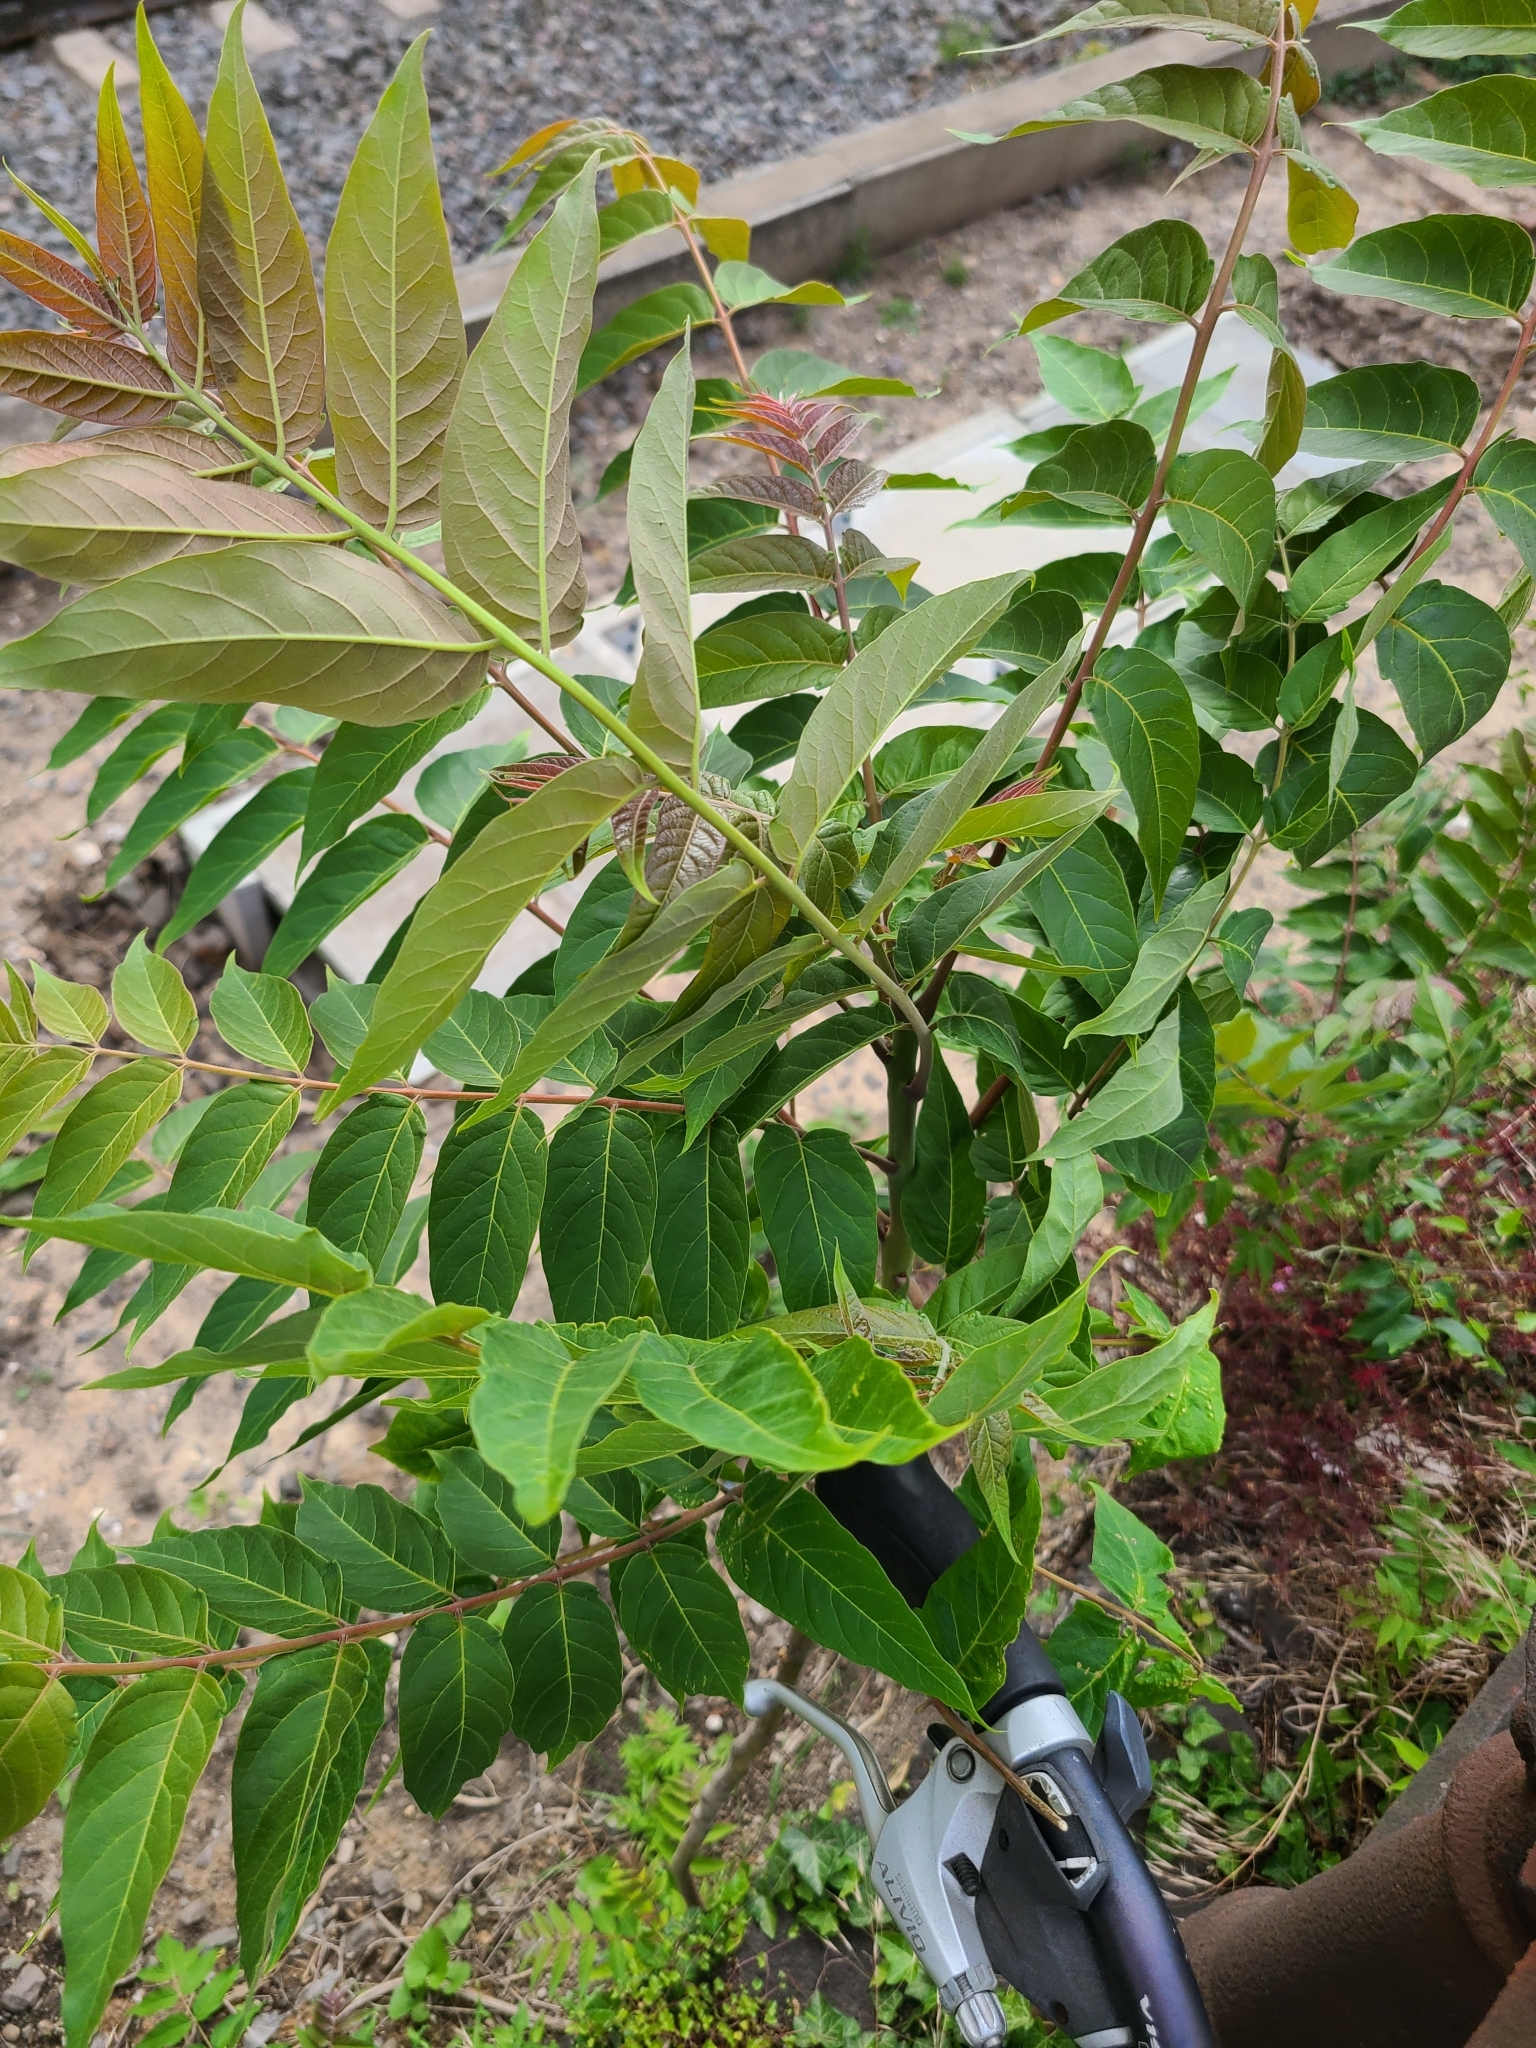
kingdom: Plantae
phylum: Tracheophyta
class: Magnoliopsida
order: Sapindales
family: Simaroubaceae
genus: Ailanthus
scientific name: Ailanthus altissima
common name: Tree-of-heaven
